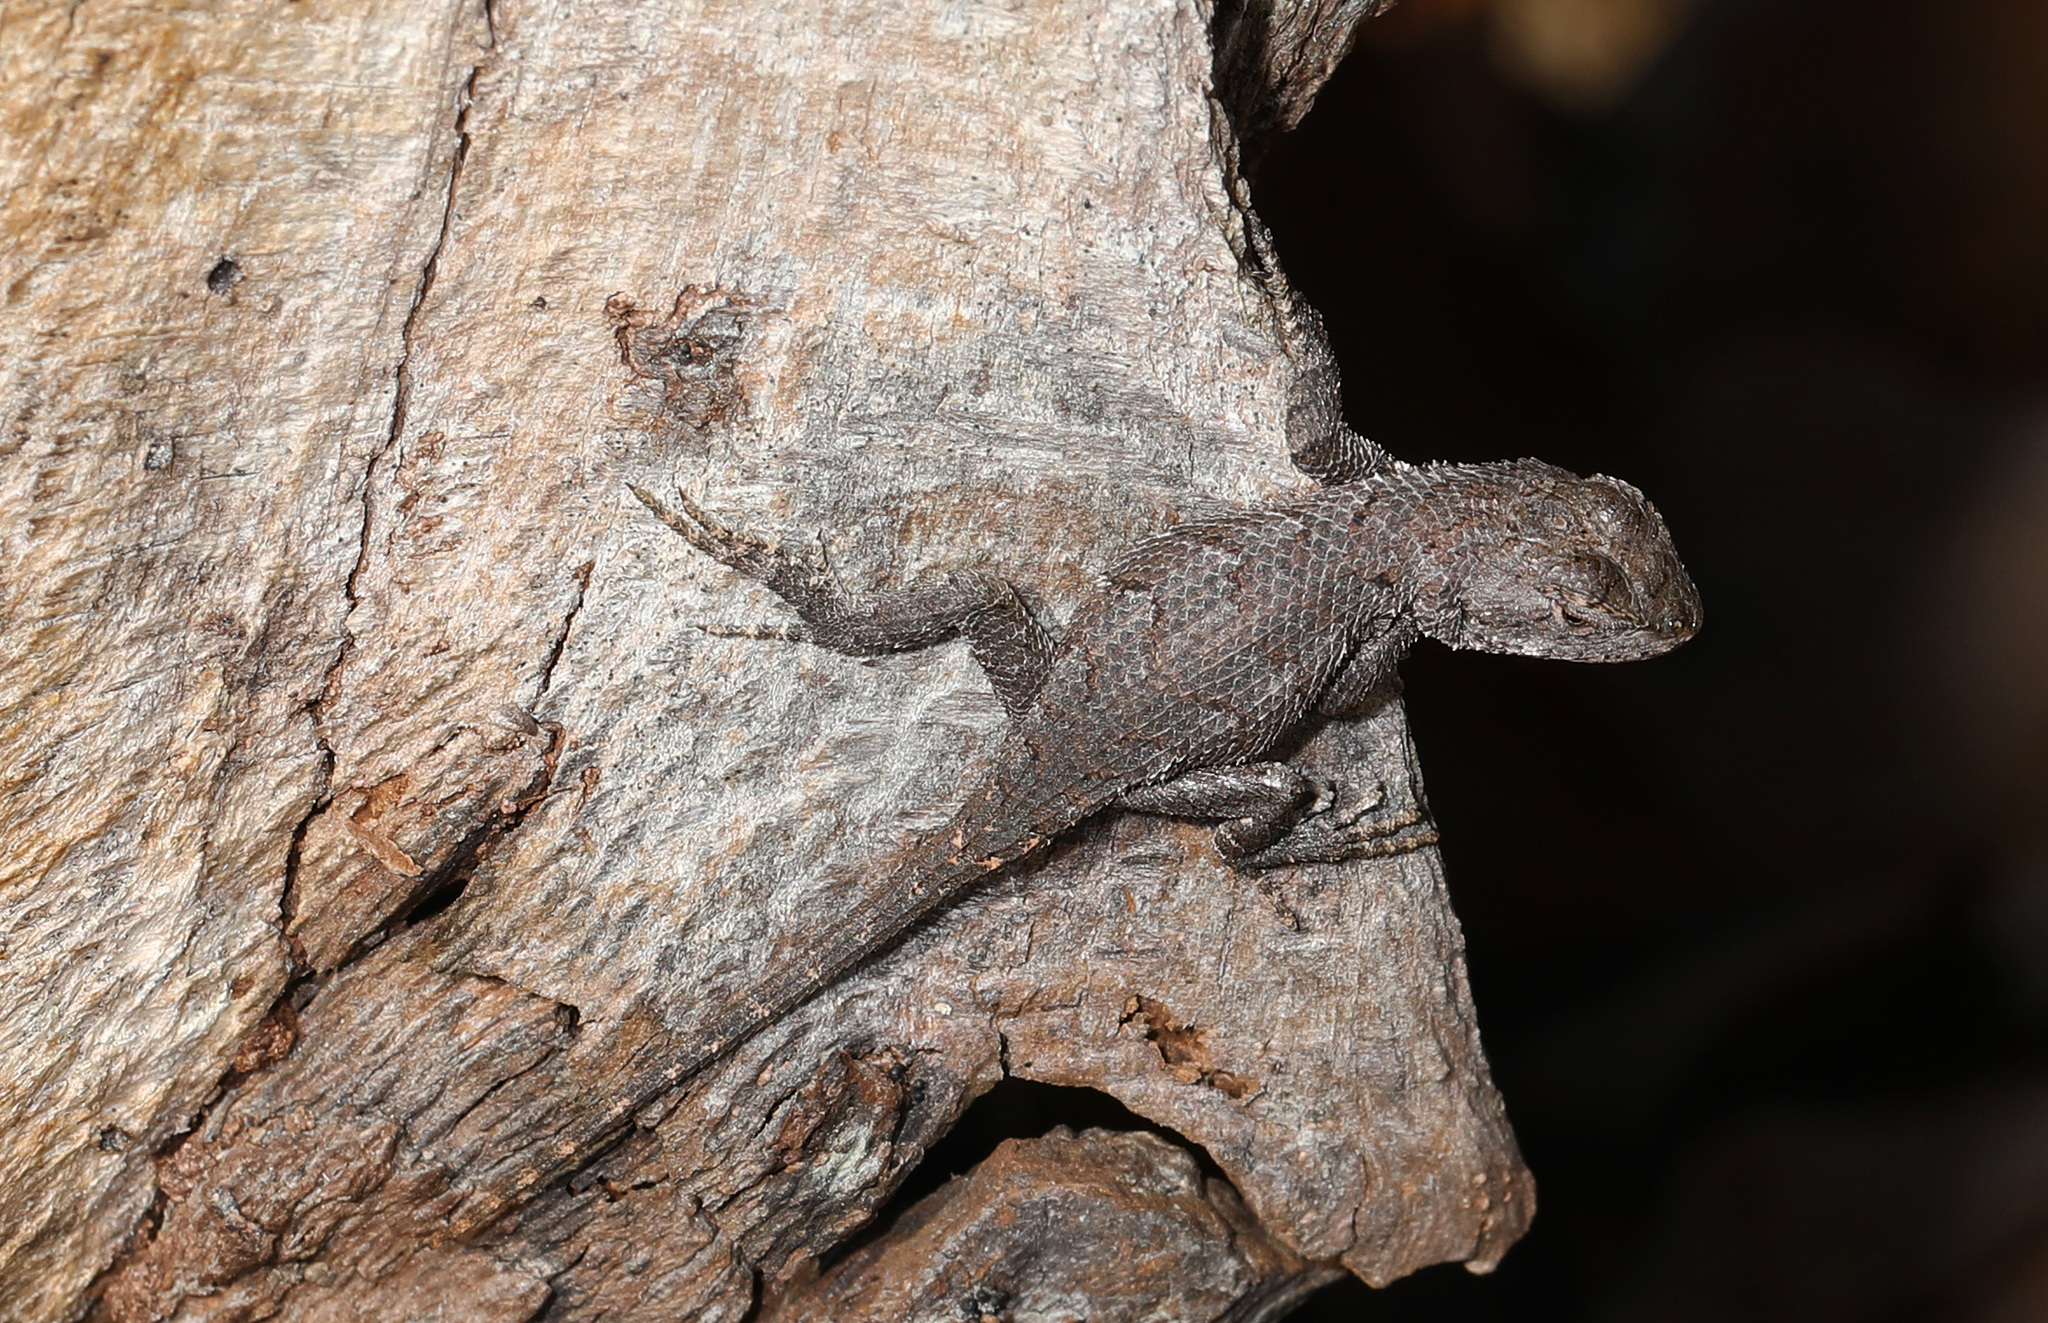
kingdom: Animalia
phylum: Chordata
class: Squamata
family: Phrynosomatidae
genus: Sceloporus
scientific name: Sceloporus undulatus
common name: Eastern fence lizard
